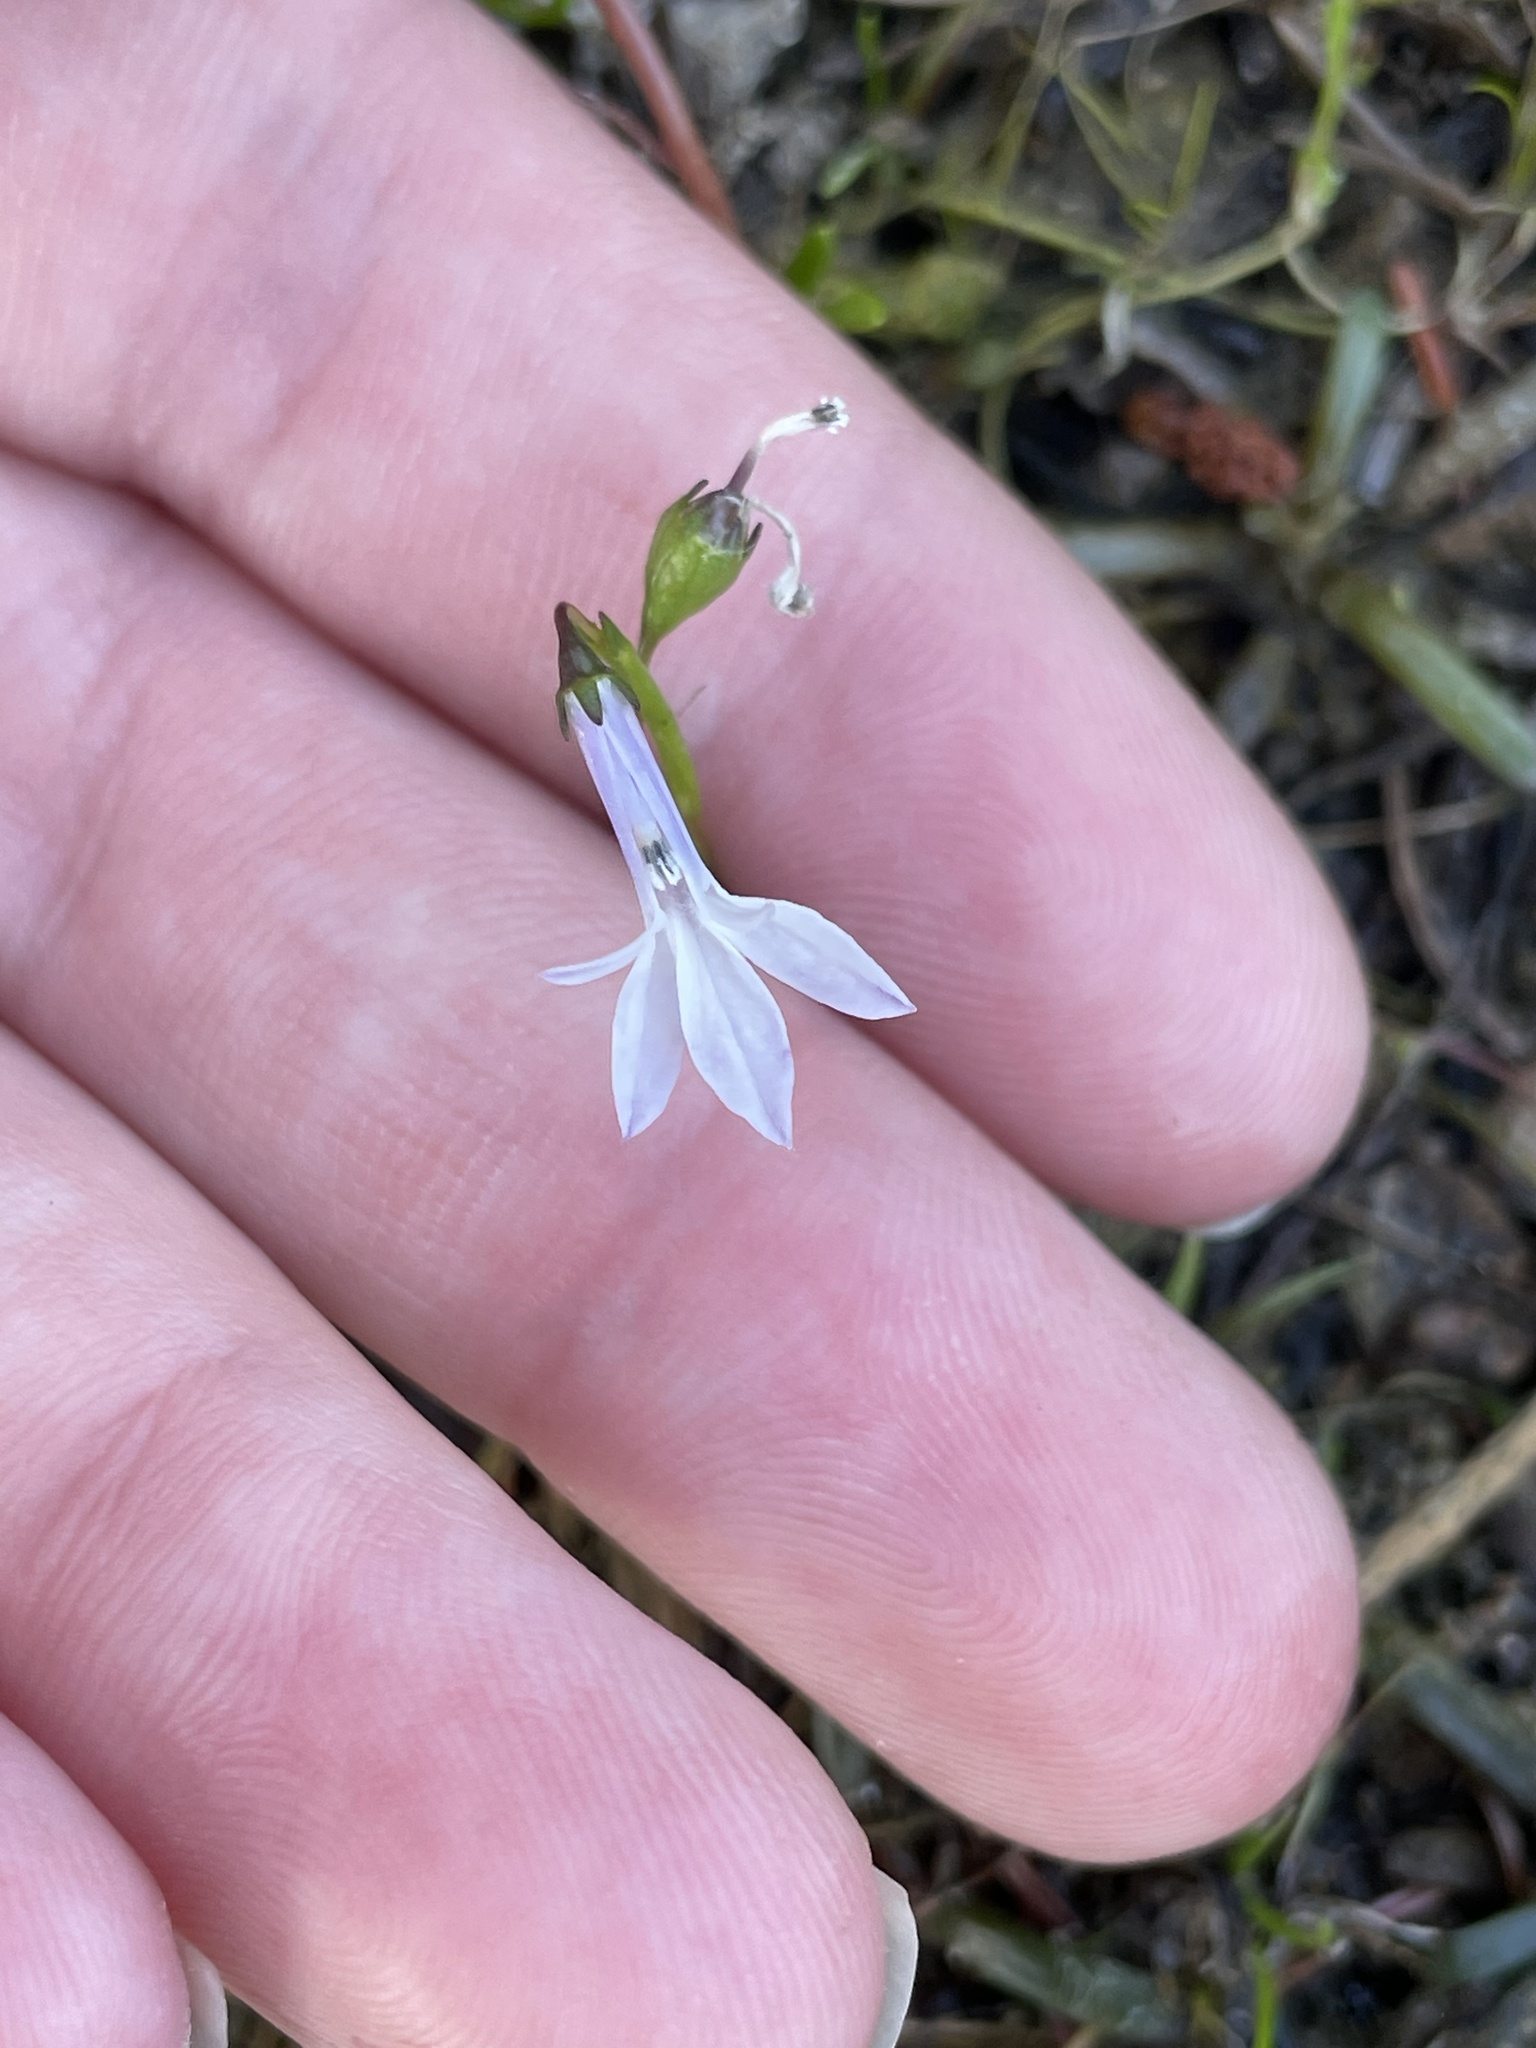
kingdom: Plantae
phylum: Tracheophyta
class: Magnoliopsida
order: Asterales
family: Campanulaceae
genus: Lobelia
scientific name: Lobelia dortmanna
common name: Water lobelia
